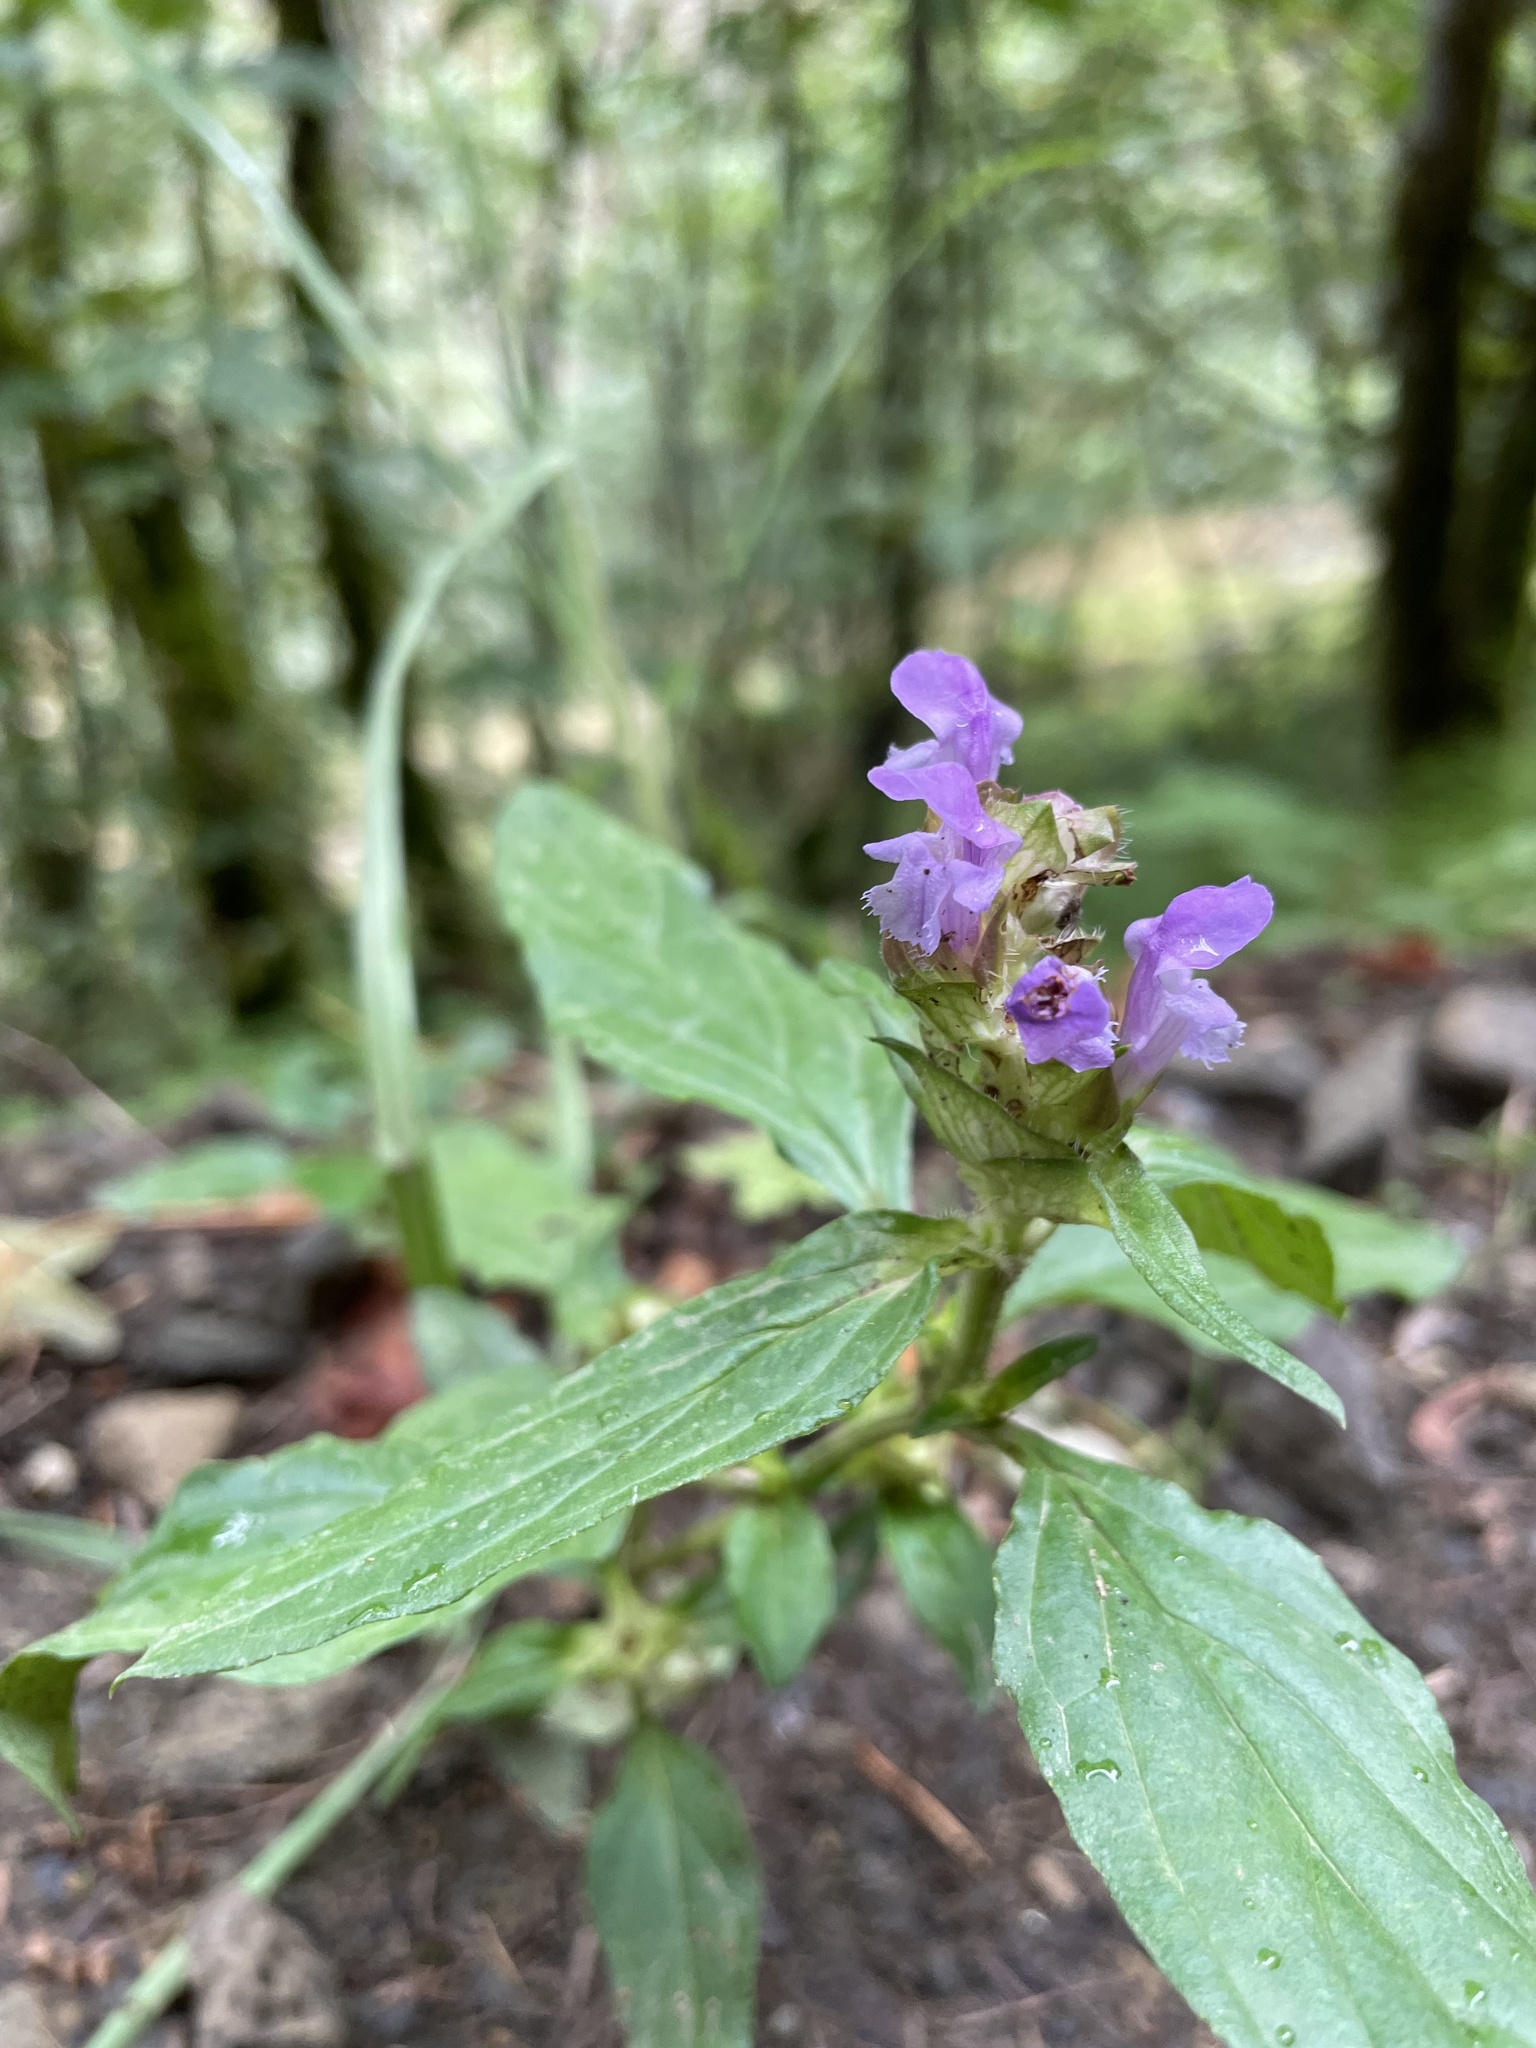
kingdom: Plantae
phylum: Tracheophyta
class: Magnoliopsida
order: Lamiales
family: Lamiaceae
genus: Prunella
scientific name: Prunella vulgaris
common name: Heal-all
